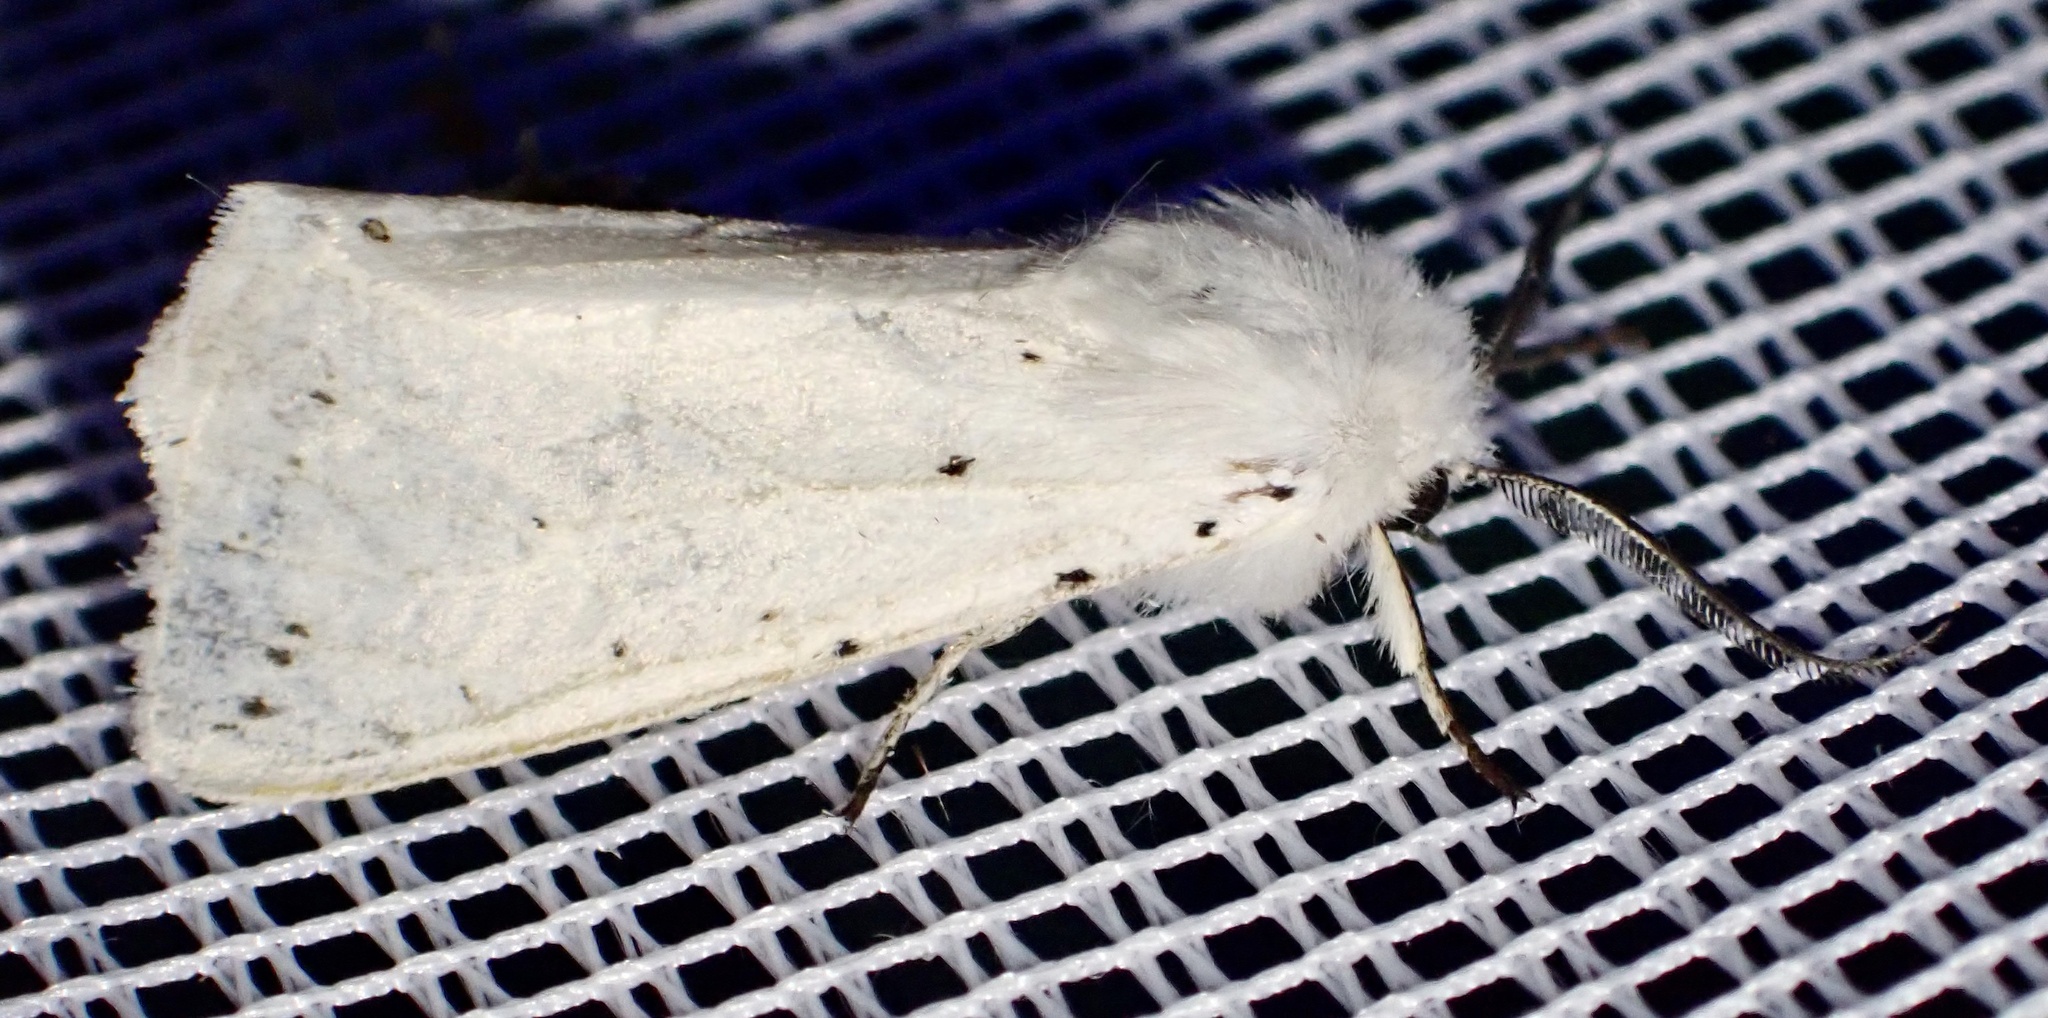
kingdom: Animalia
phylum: Arthropoda
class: Insecta
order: Lepidoptera
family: Erebidae
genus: Spilosoma
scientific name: Spilosoma lubricipeda
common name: White ermine
